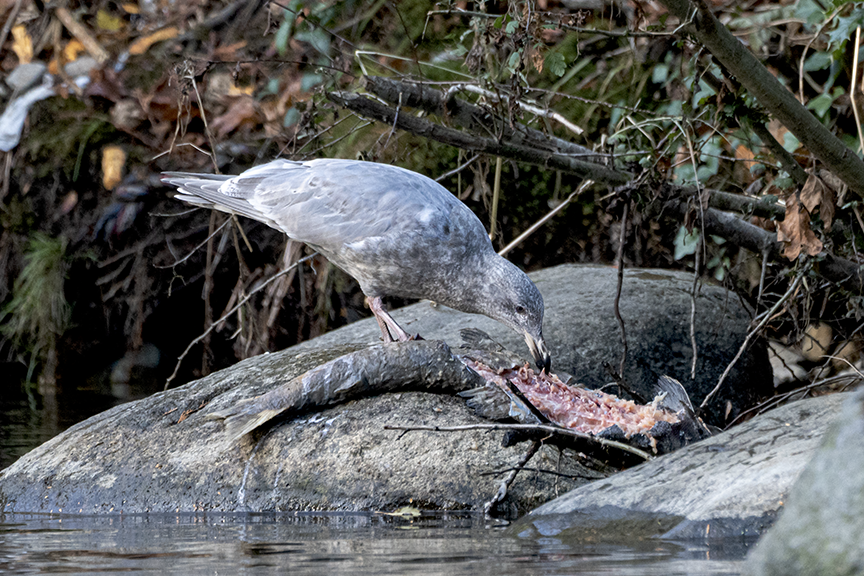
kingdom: Animalia
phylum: Chordata
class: Aves
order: Charadriiformes
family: Laridae
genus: Larus
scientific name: Larus glaucescens
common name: Glaucous-winged gull
